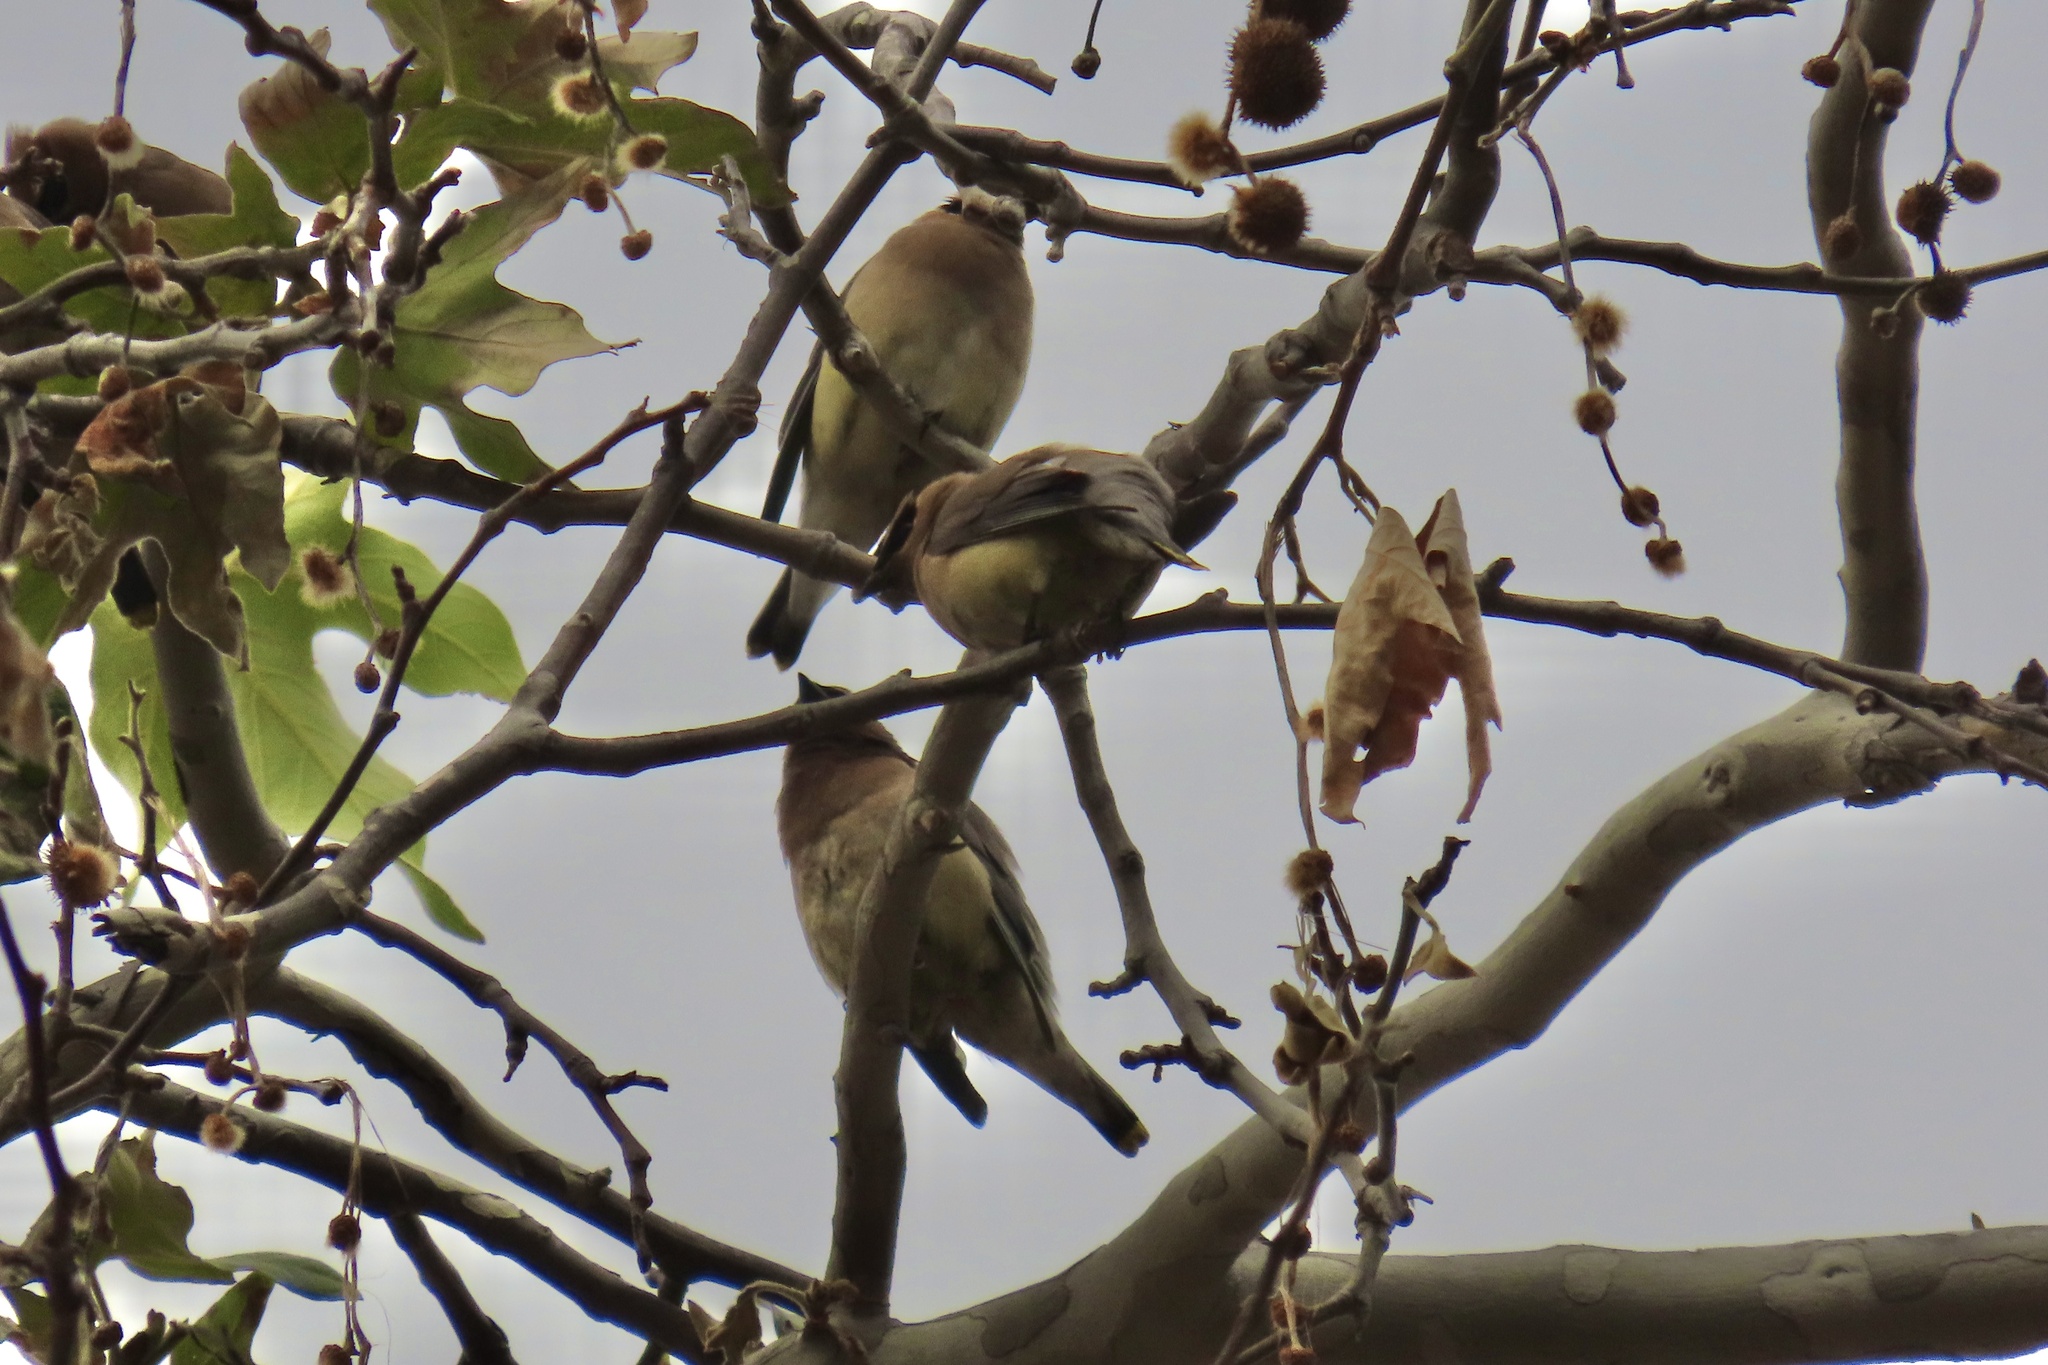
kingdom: Animalia
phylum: Chordata
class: Aves
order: Passeriformes
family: Bombycillidae
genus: Bombycilla
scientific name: Bombycilla cedrorum
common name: Cedar waxwing
